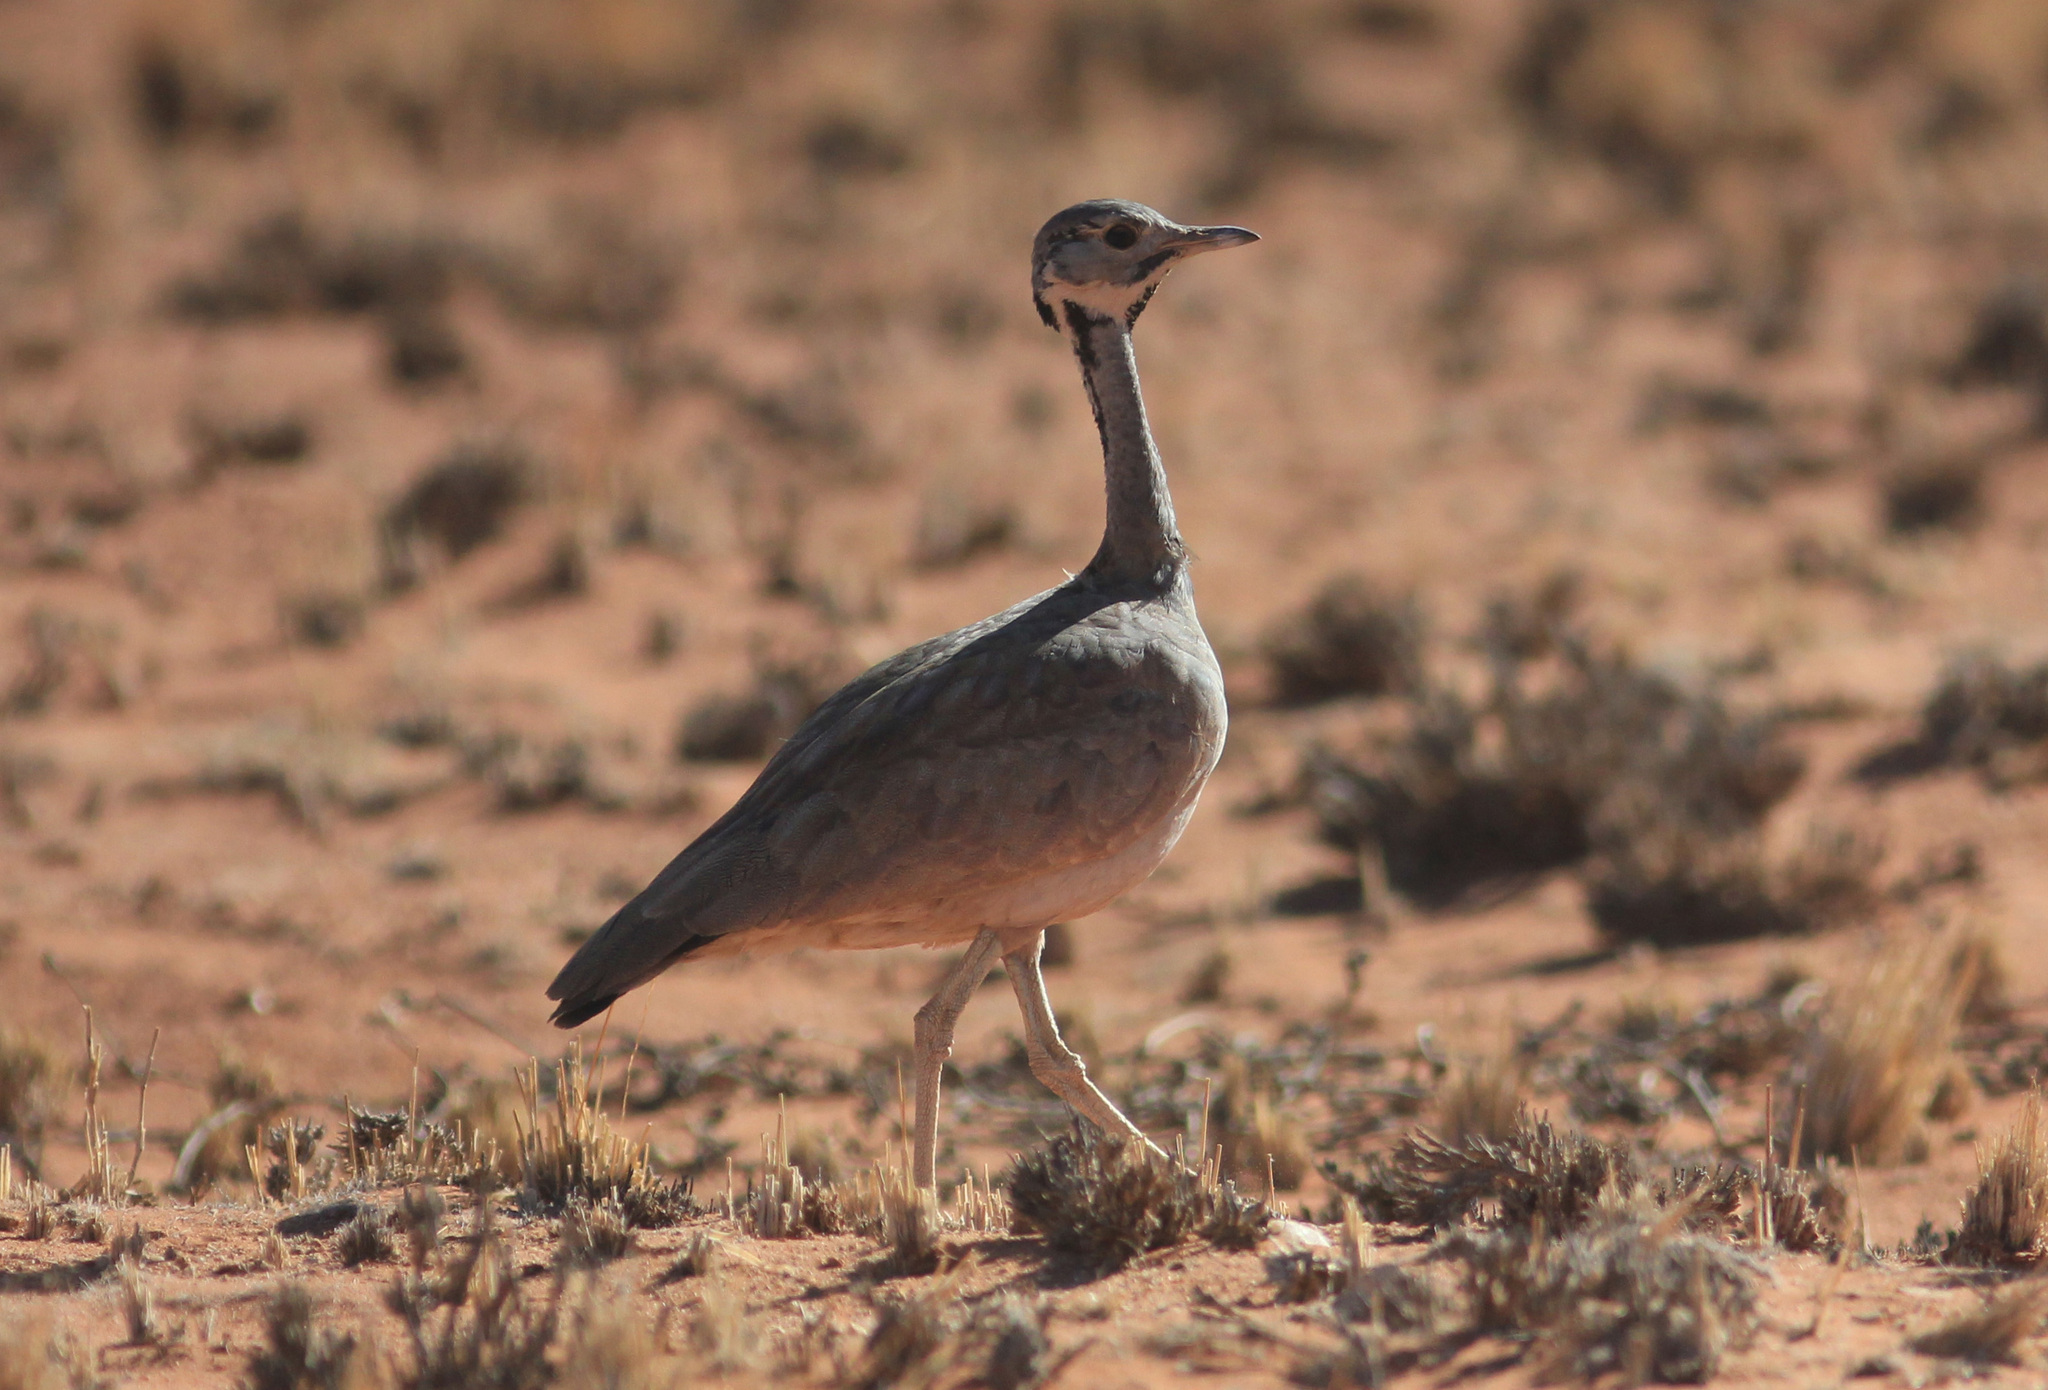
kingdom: Animalia
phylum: Chordata
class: Aves
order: Otidiformes
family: Otididae
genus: Heterotetrax
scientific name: Heterotetrax rueppelii
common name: Rüppell's korhaan
